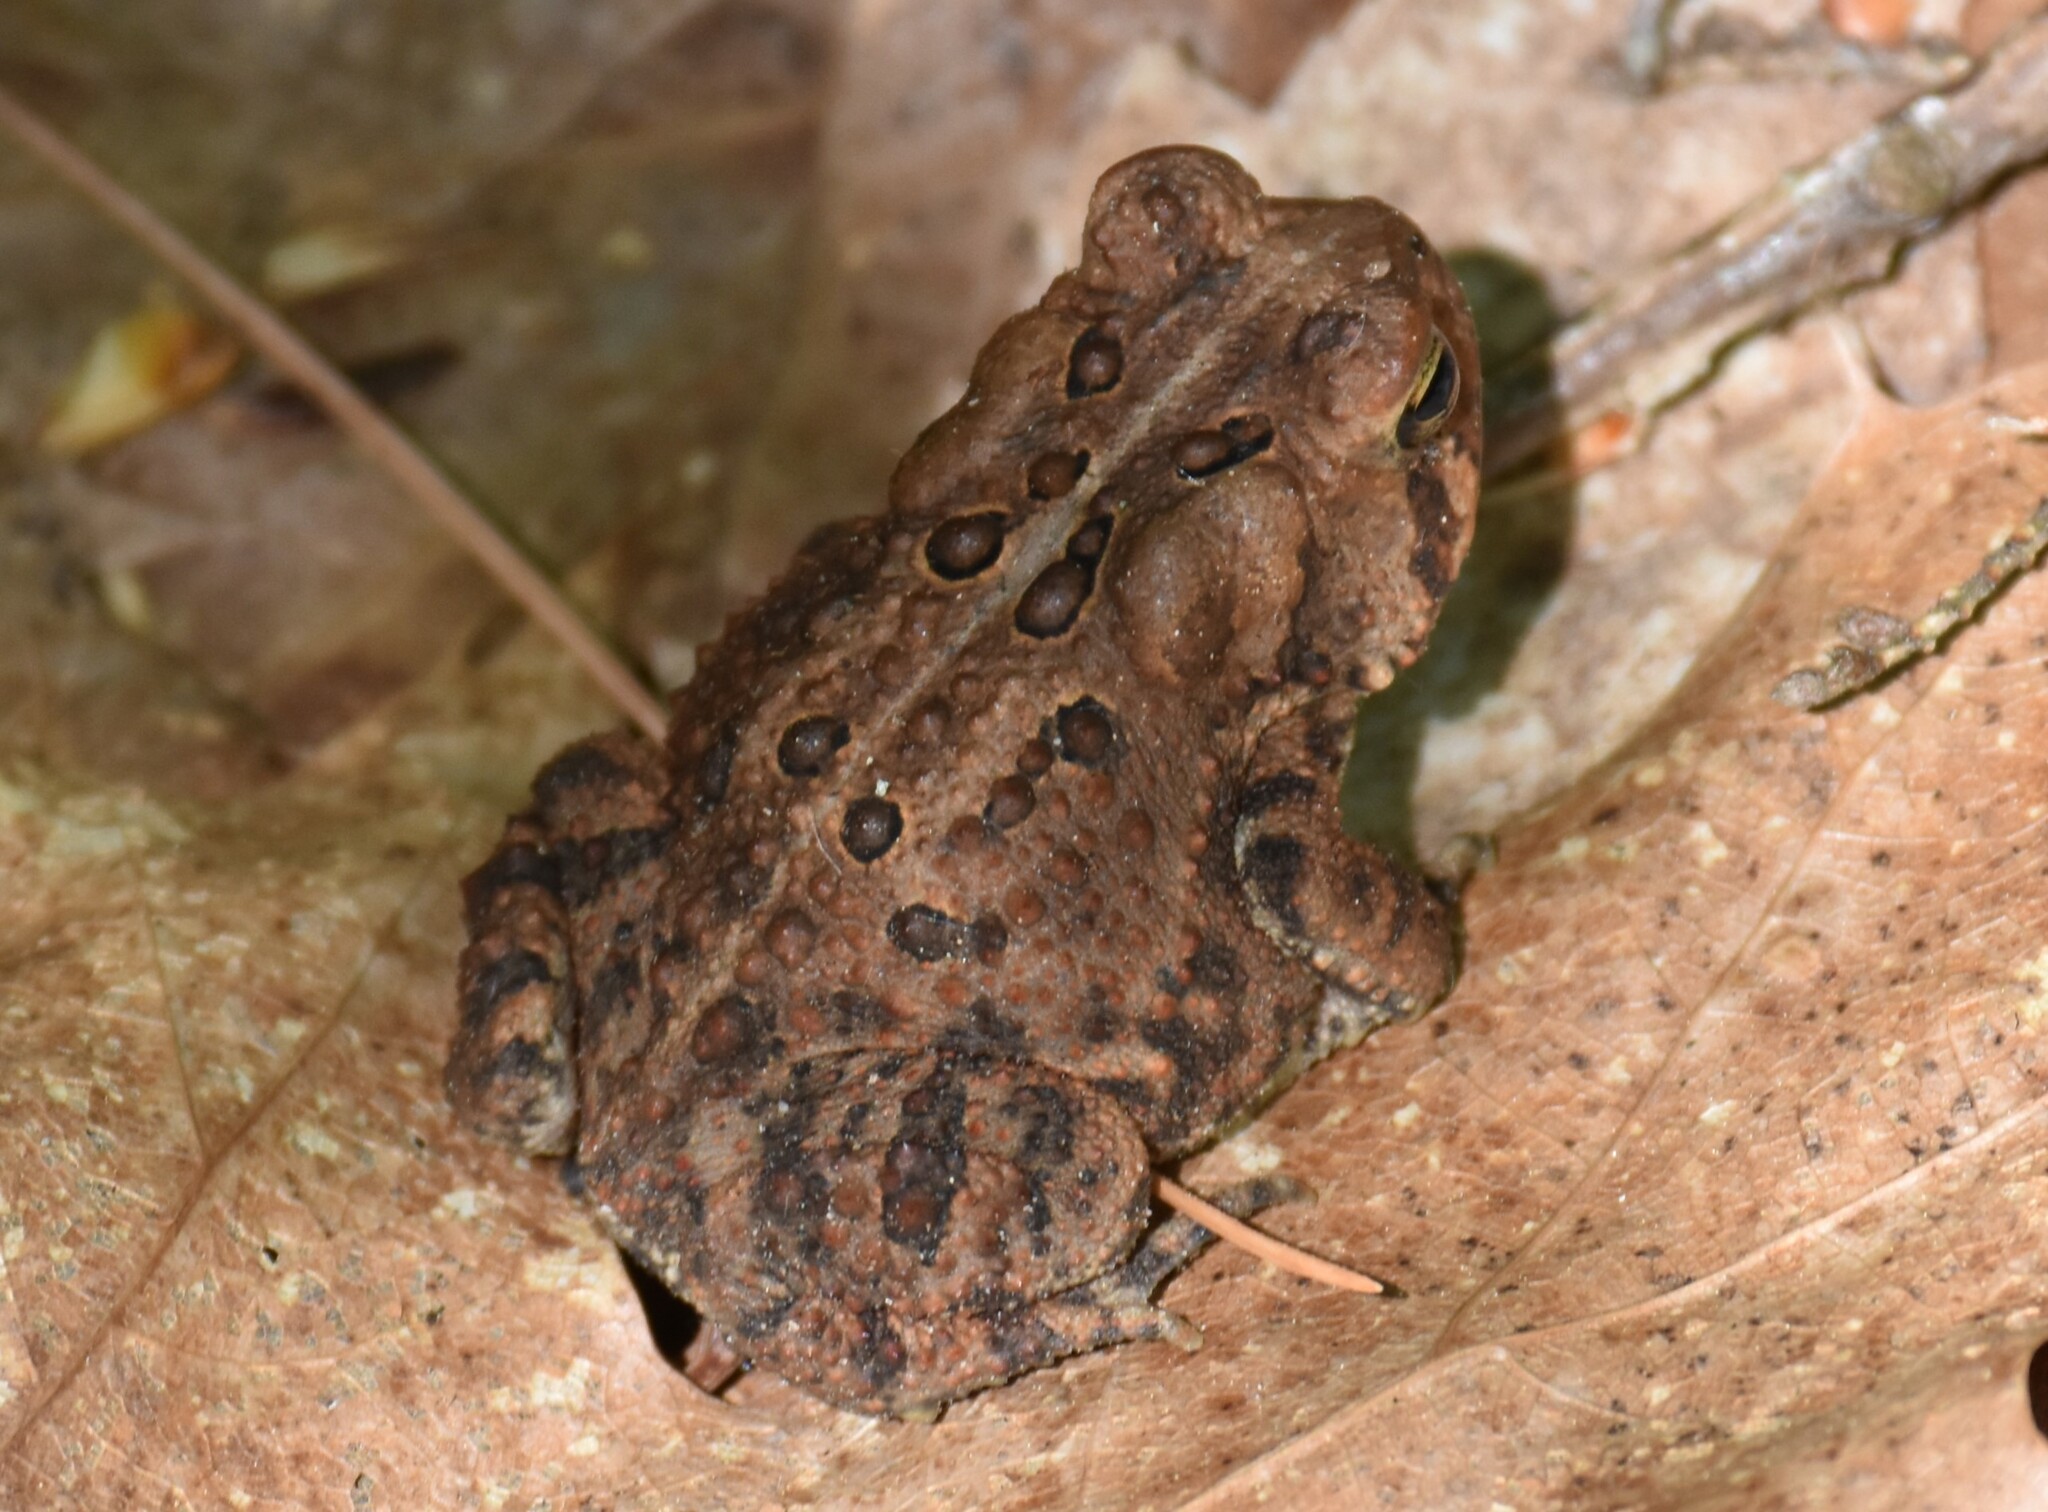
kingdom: Animalia
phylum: Chordata
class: Amphibia
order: Anura
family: Bufonidae
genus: Anaxyrus
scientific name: Anaxyrus americanus
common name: American toad
